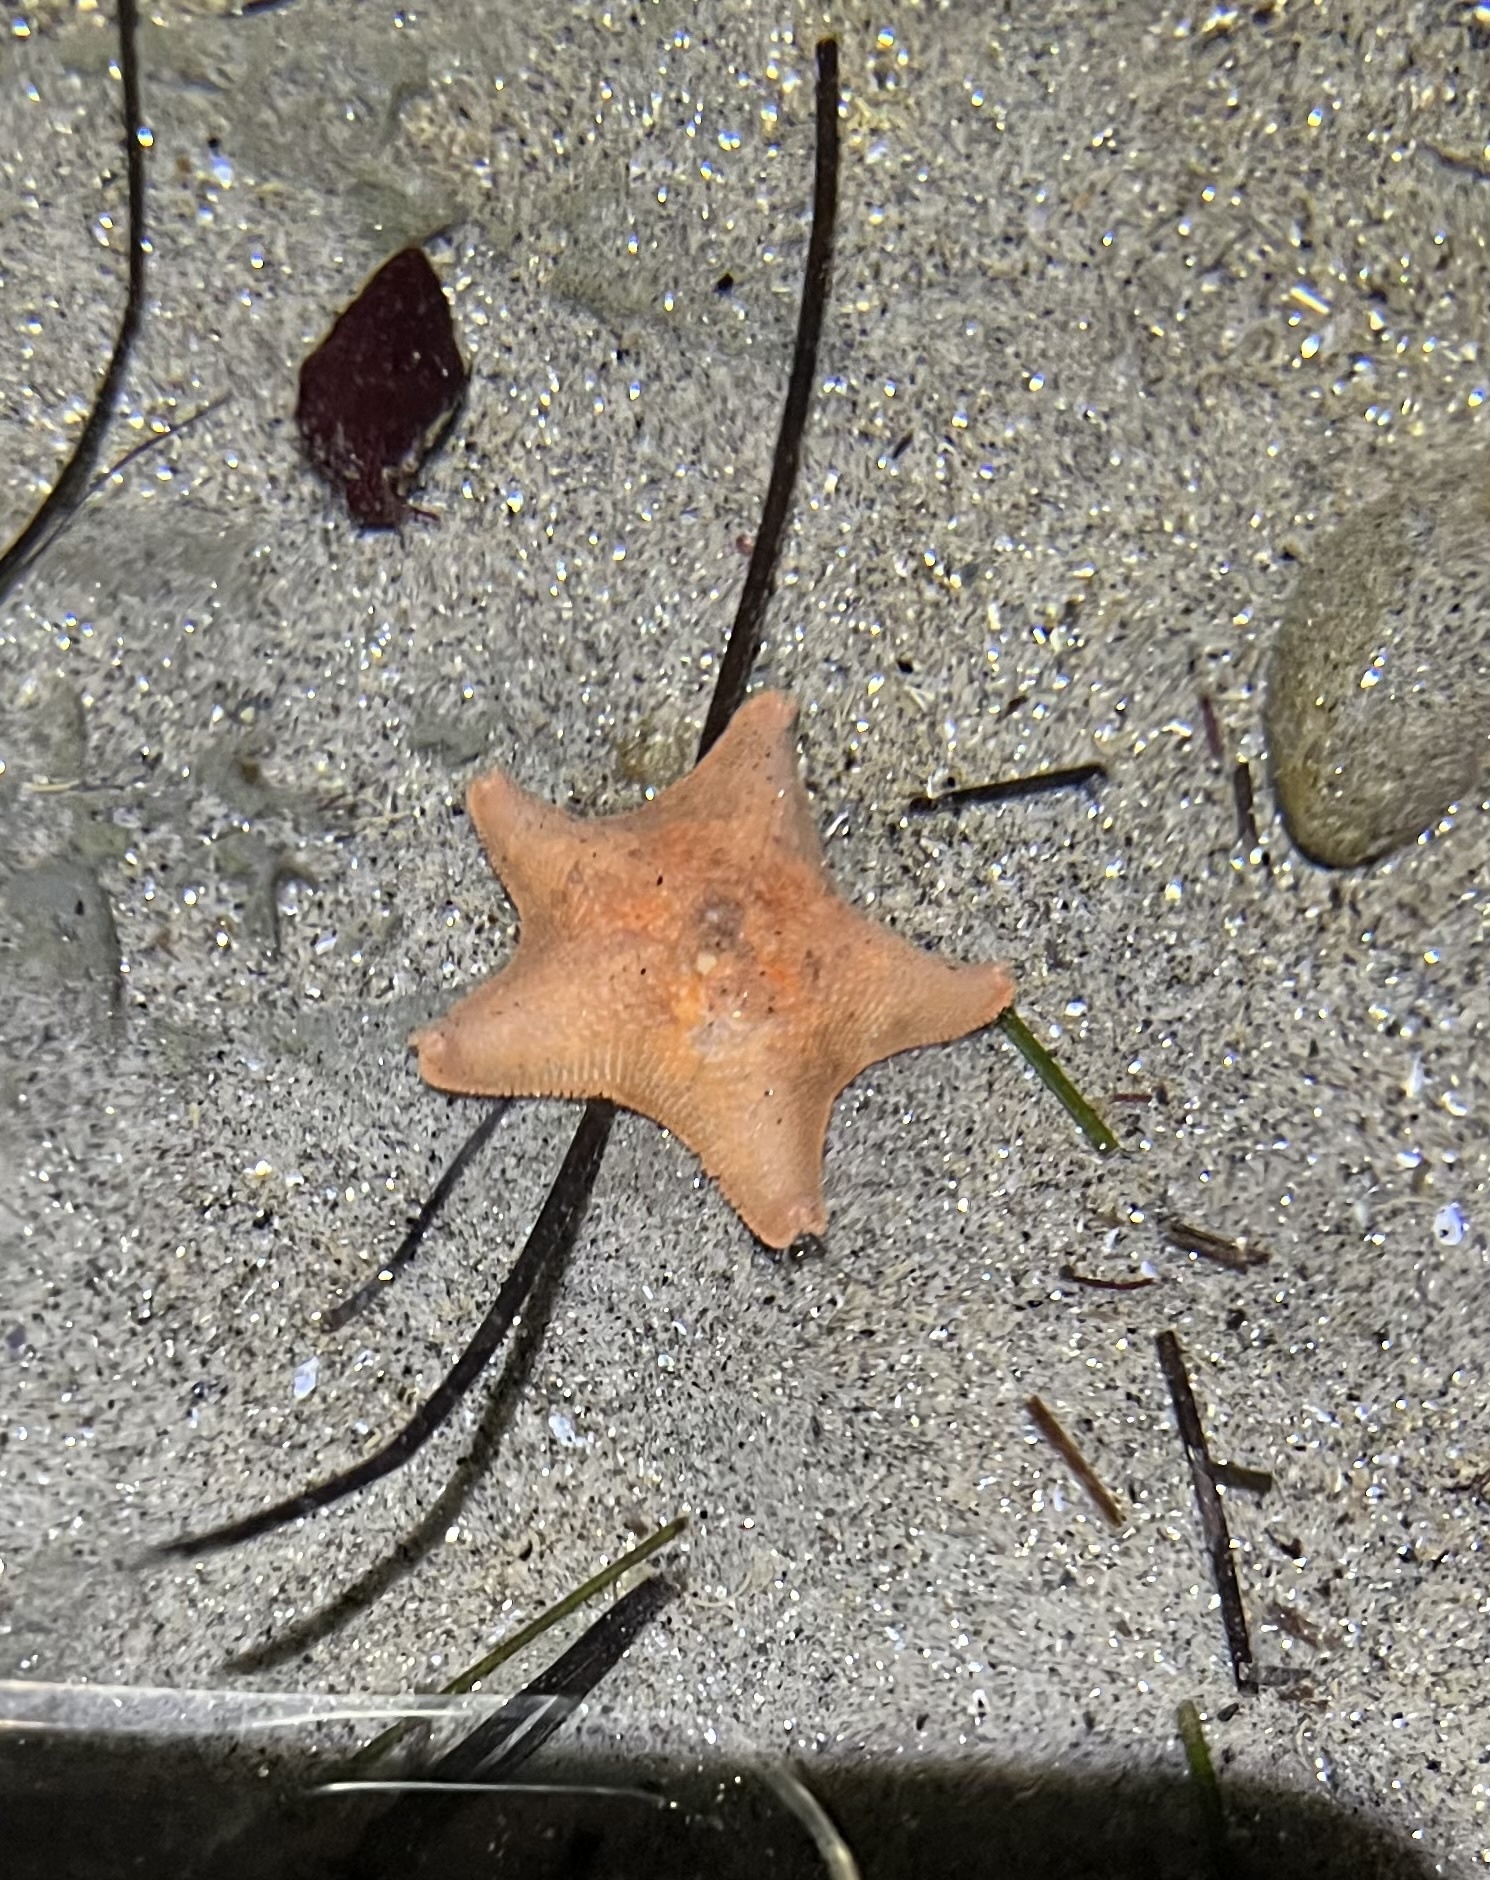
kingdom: Animalia
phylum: Echinodermata
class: Asteroidea
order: Valvatida
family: Asterinidae
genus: Patiria
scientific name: Patiria miniata
